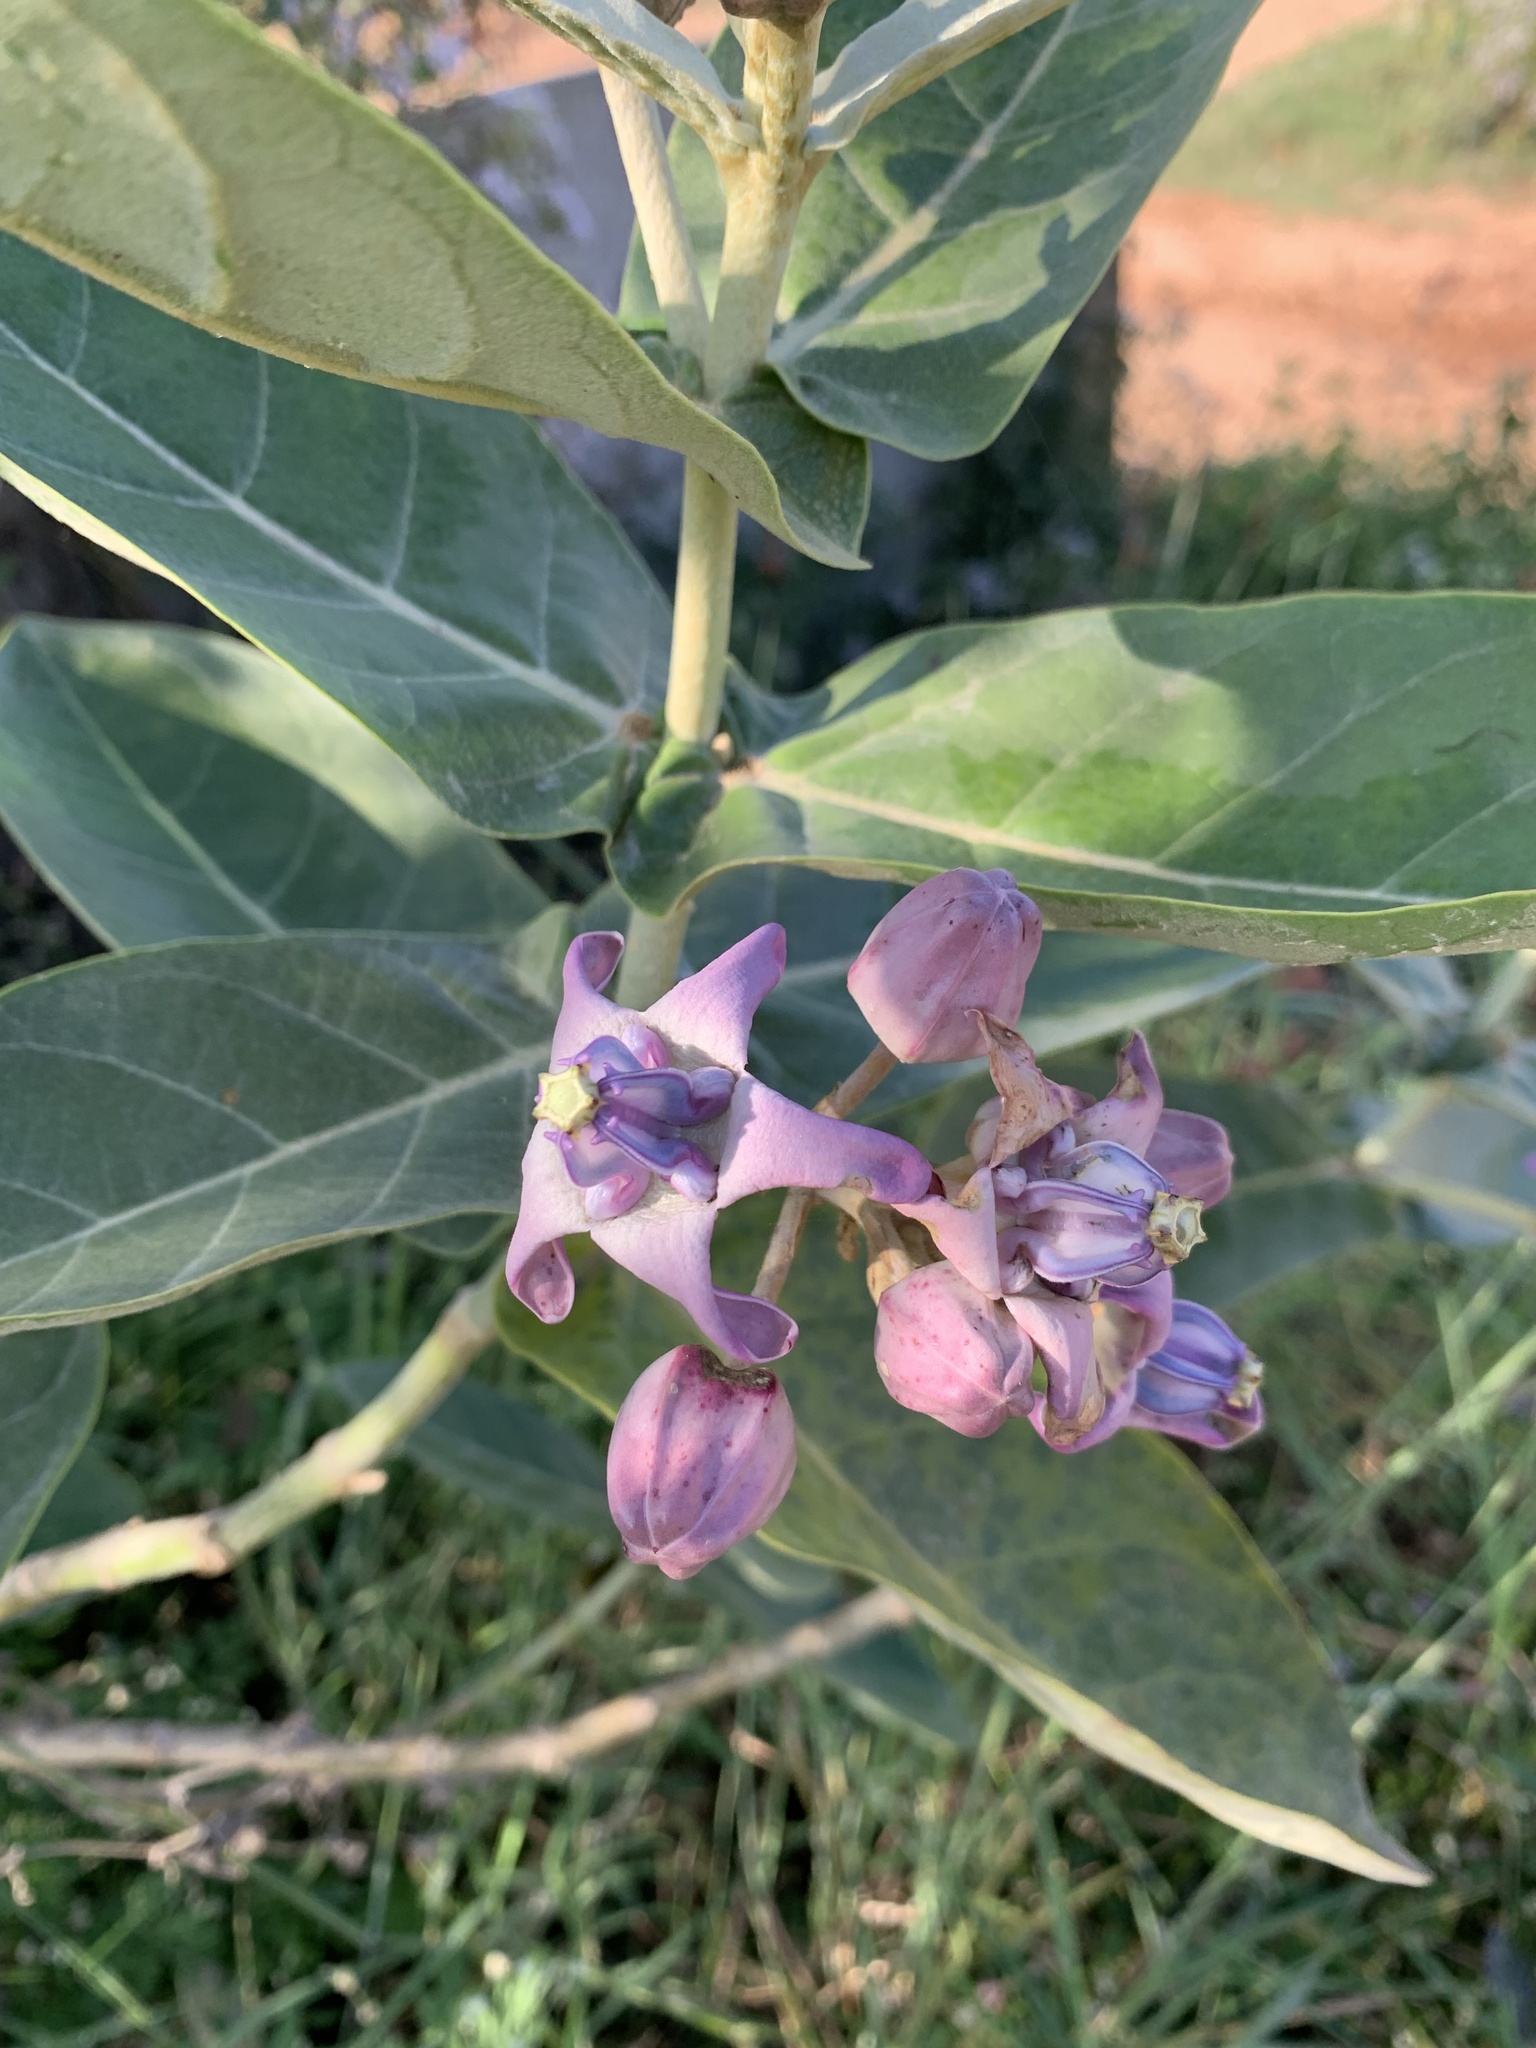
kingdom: Plantae
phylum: Tracheophyta
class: Magnoliopsida
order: Gentianales
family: Apocynaceae
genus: Calotropis
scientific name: Calotropis gigantea
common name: Crown flower
